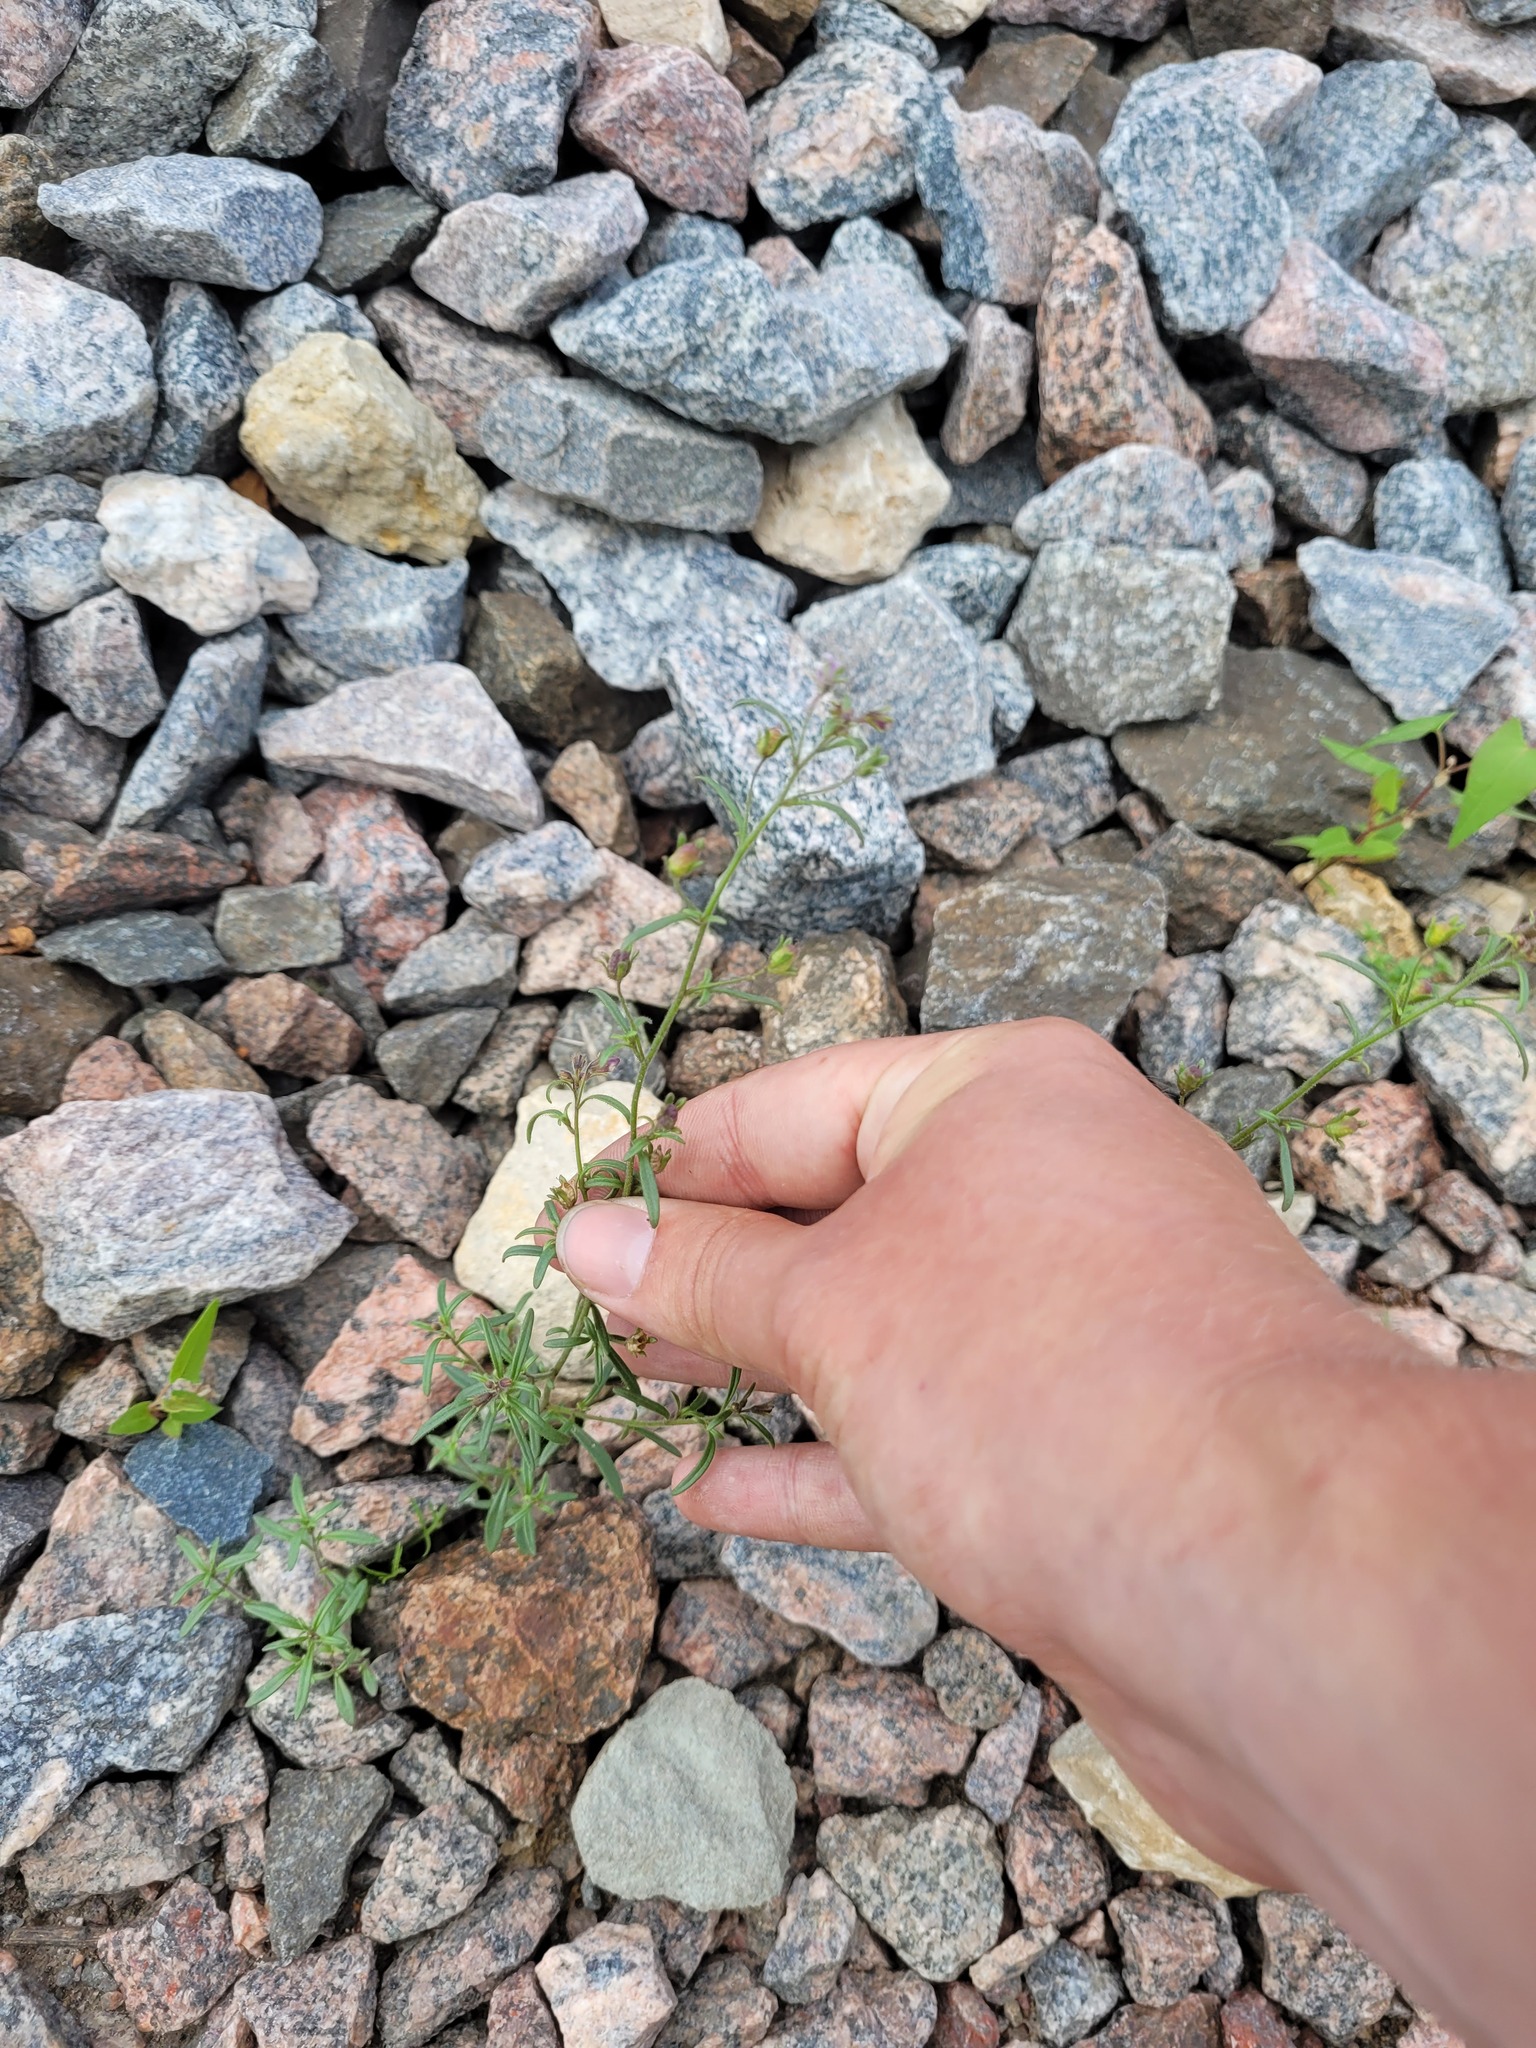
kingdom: Plantae
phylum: Tracheophyta
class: Magnoliopsida
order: Lamiales
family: Plantaginaceae
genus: Chaenorhinum
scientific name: Chaenorhinum minus
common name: Dwarf snapdragon
